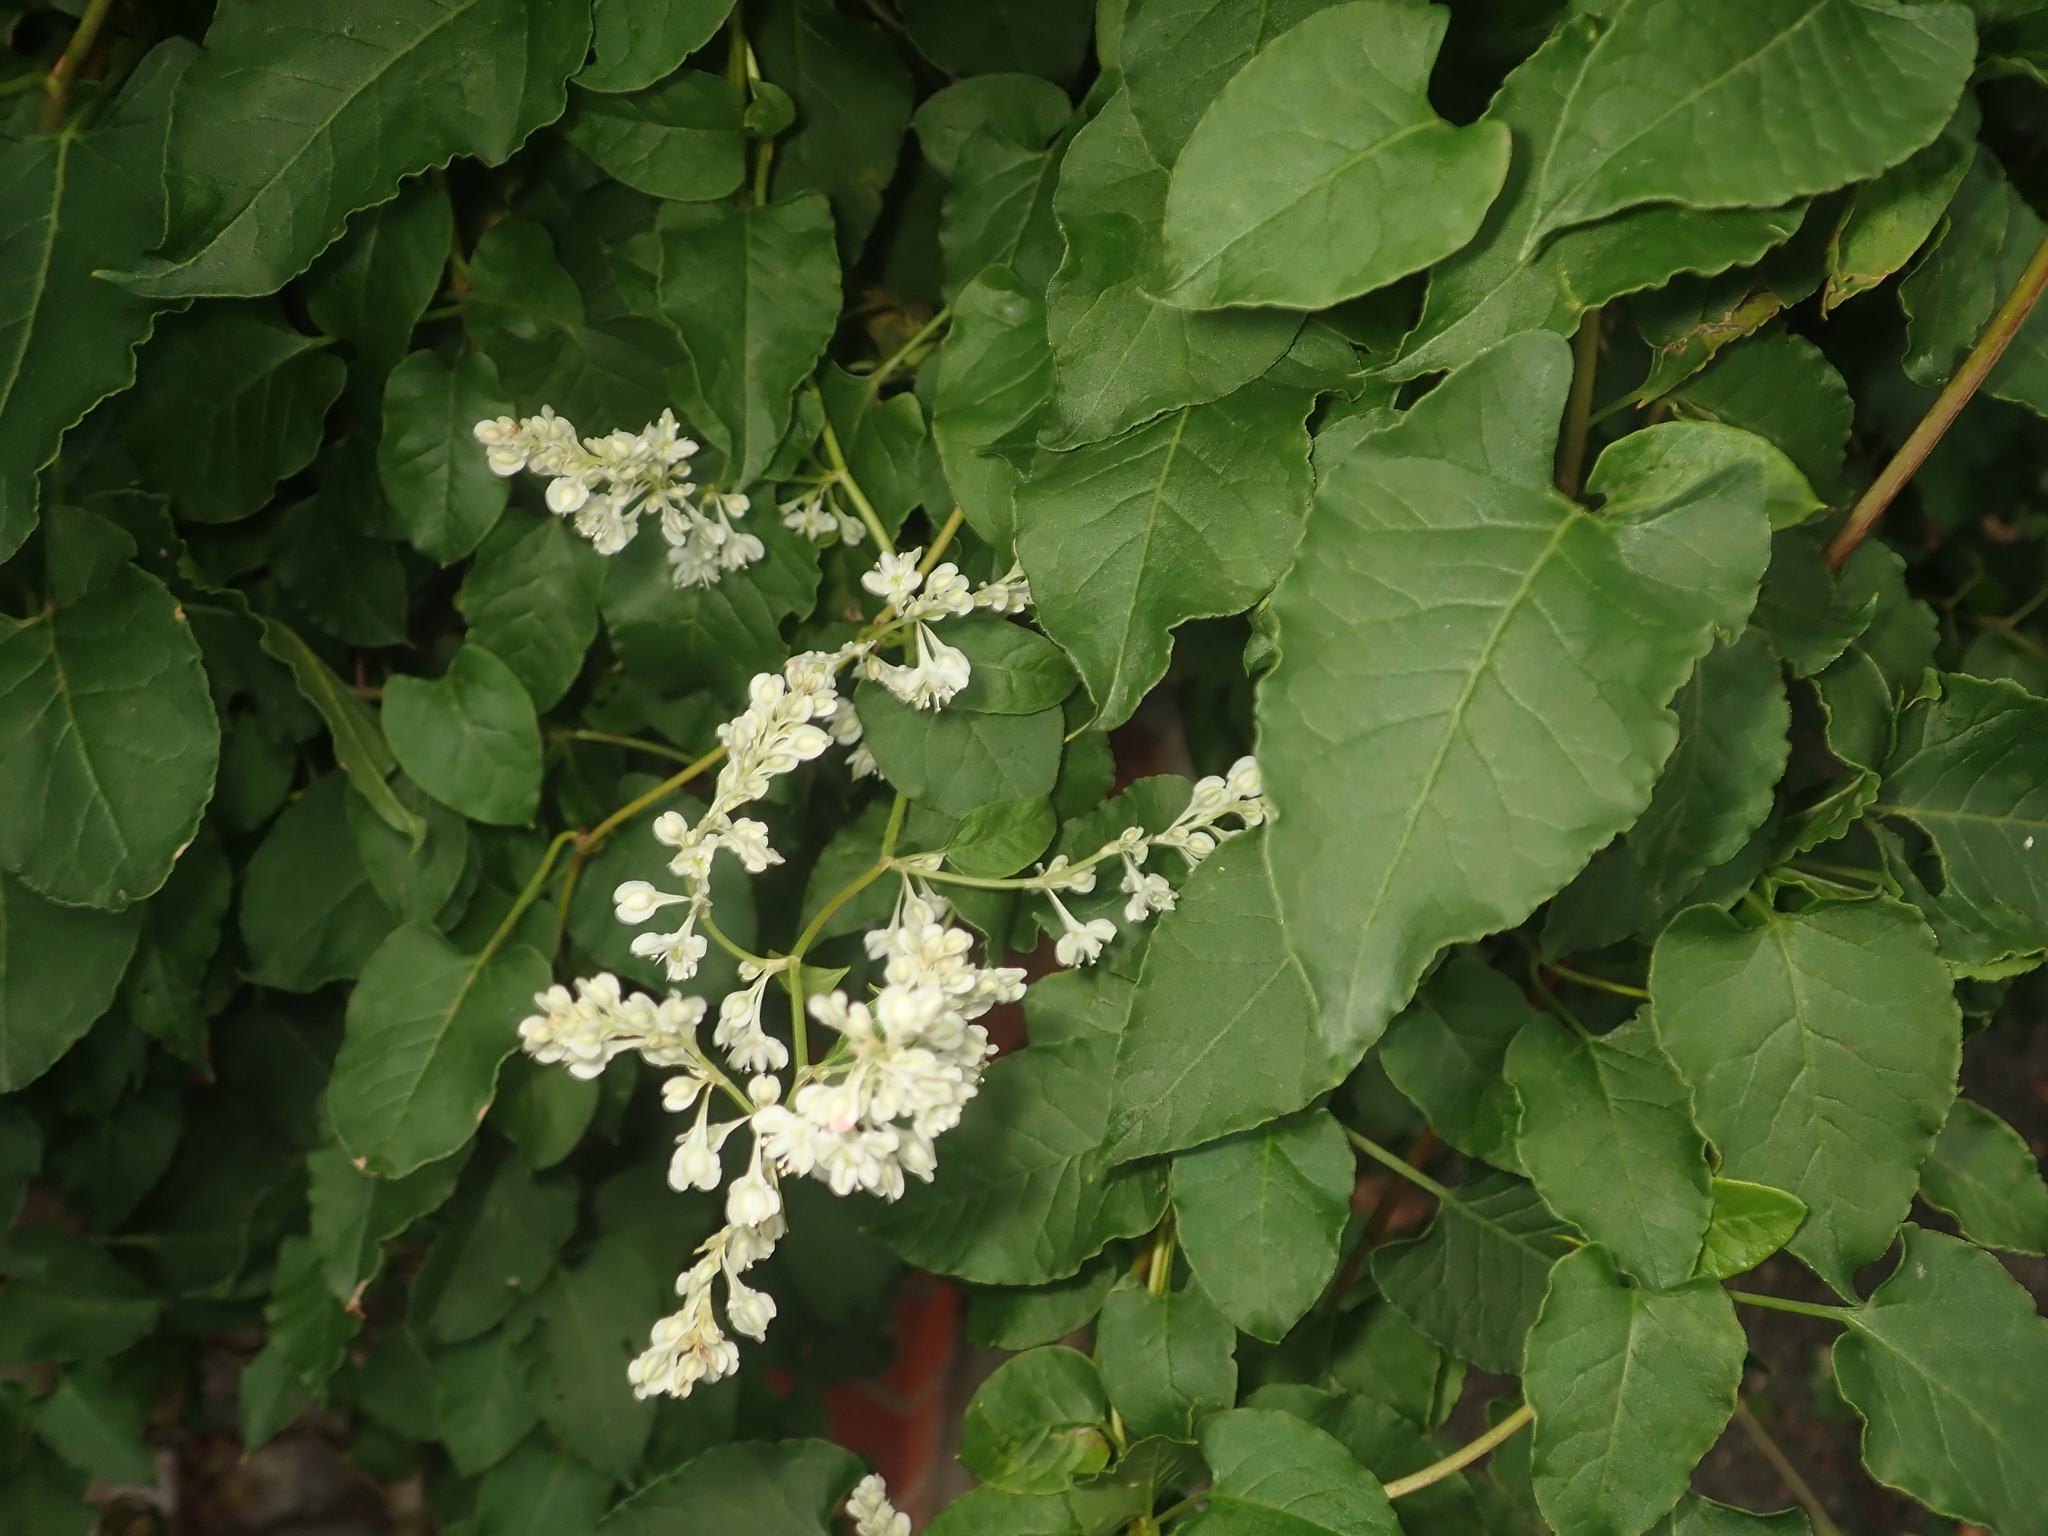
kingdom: Plantae
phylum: Tracheophyta
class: Magnoliopsida
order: Caryophyllales
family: Polygonaceae
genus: Fallopia
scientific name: Fallopia baldschuanica
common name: Russian-vine
